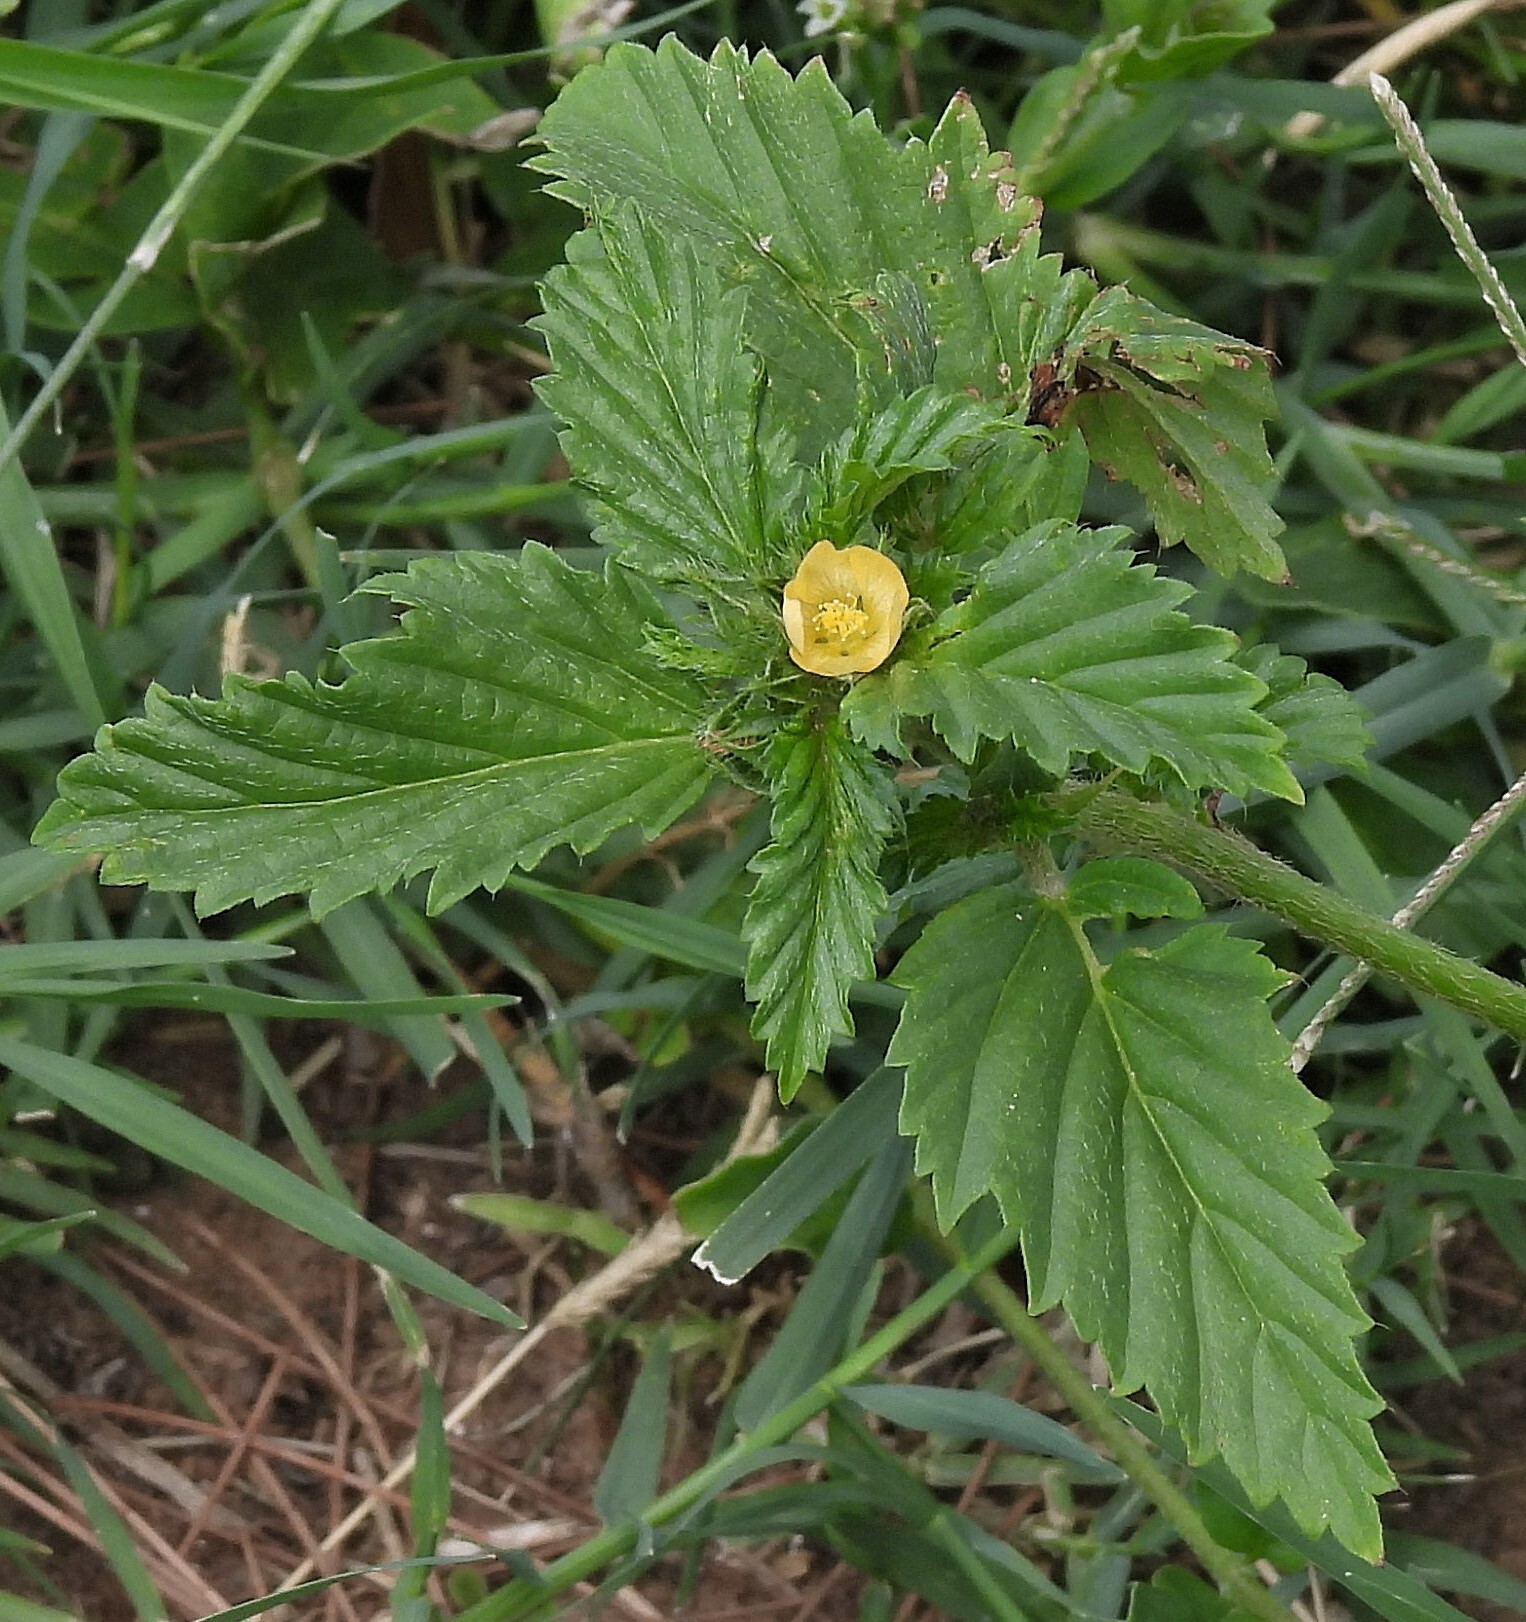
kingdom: Plantae
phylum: Tracheophyta
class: Magnoliopsida
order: Malvales
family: Malvaceae
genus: Malvastrum
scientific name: Malvastrum coromandelianum
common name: Threelobe false mallow
